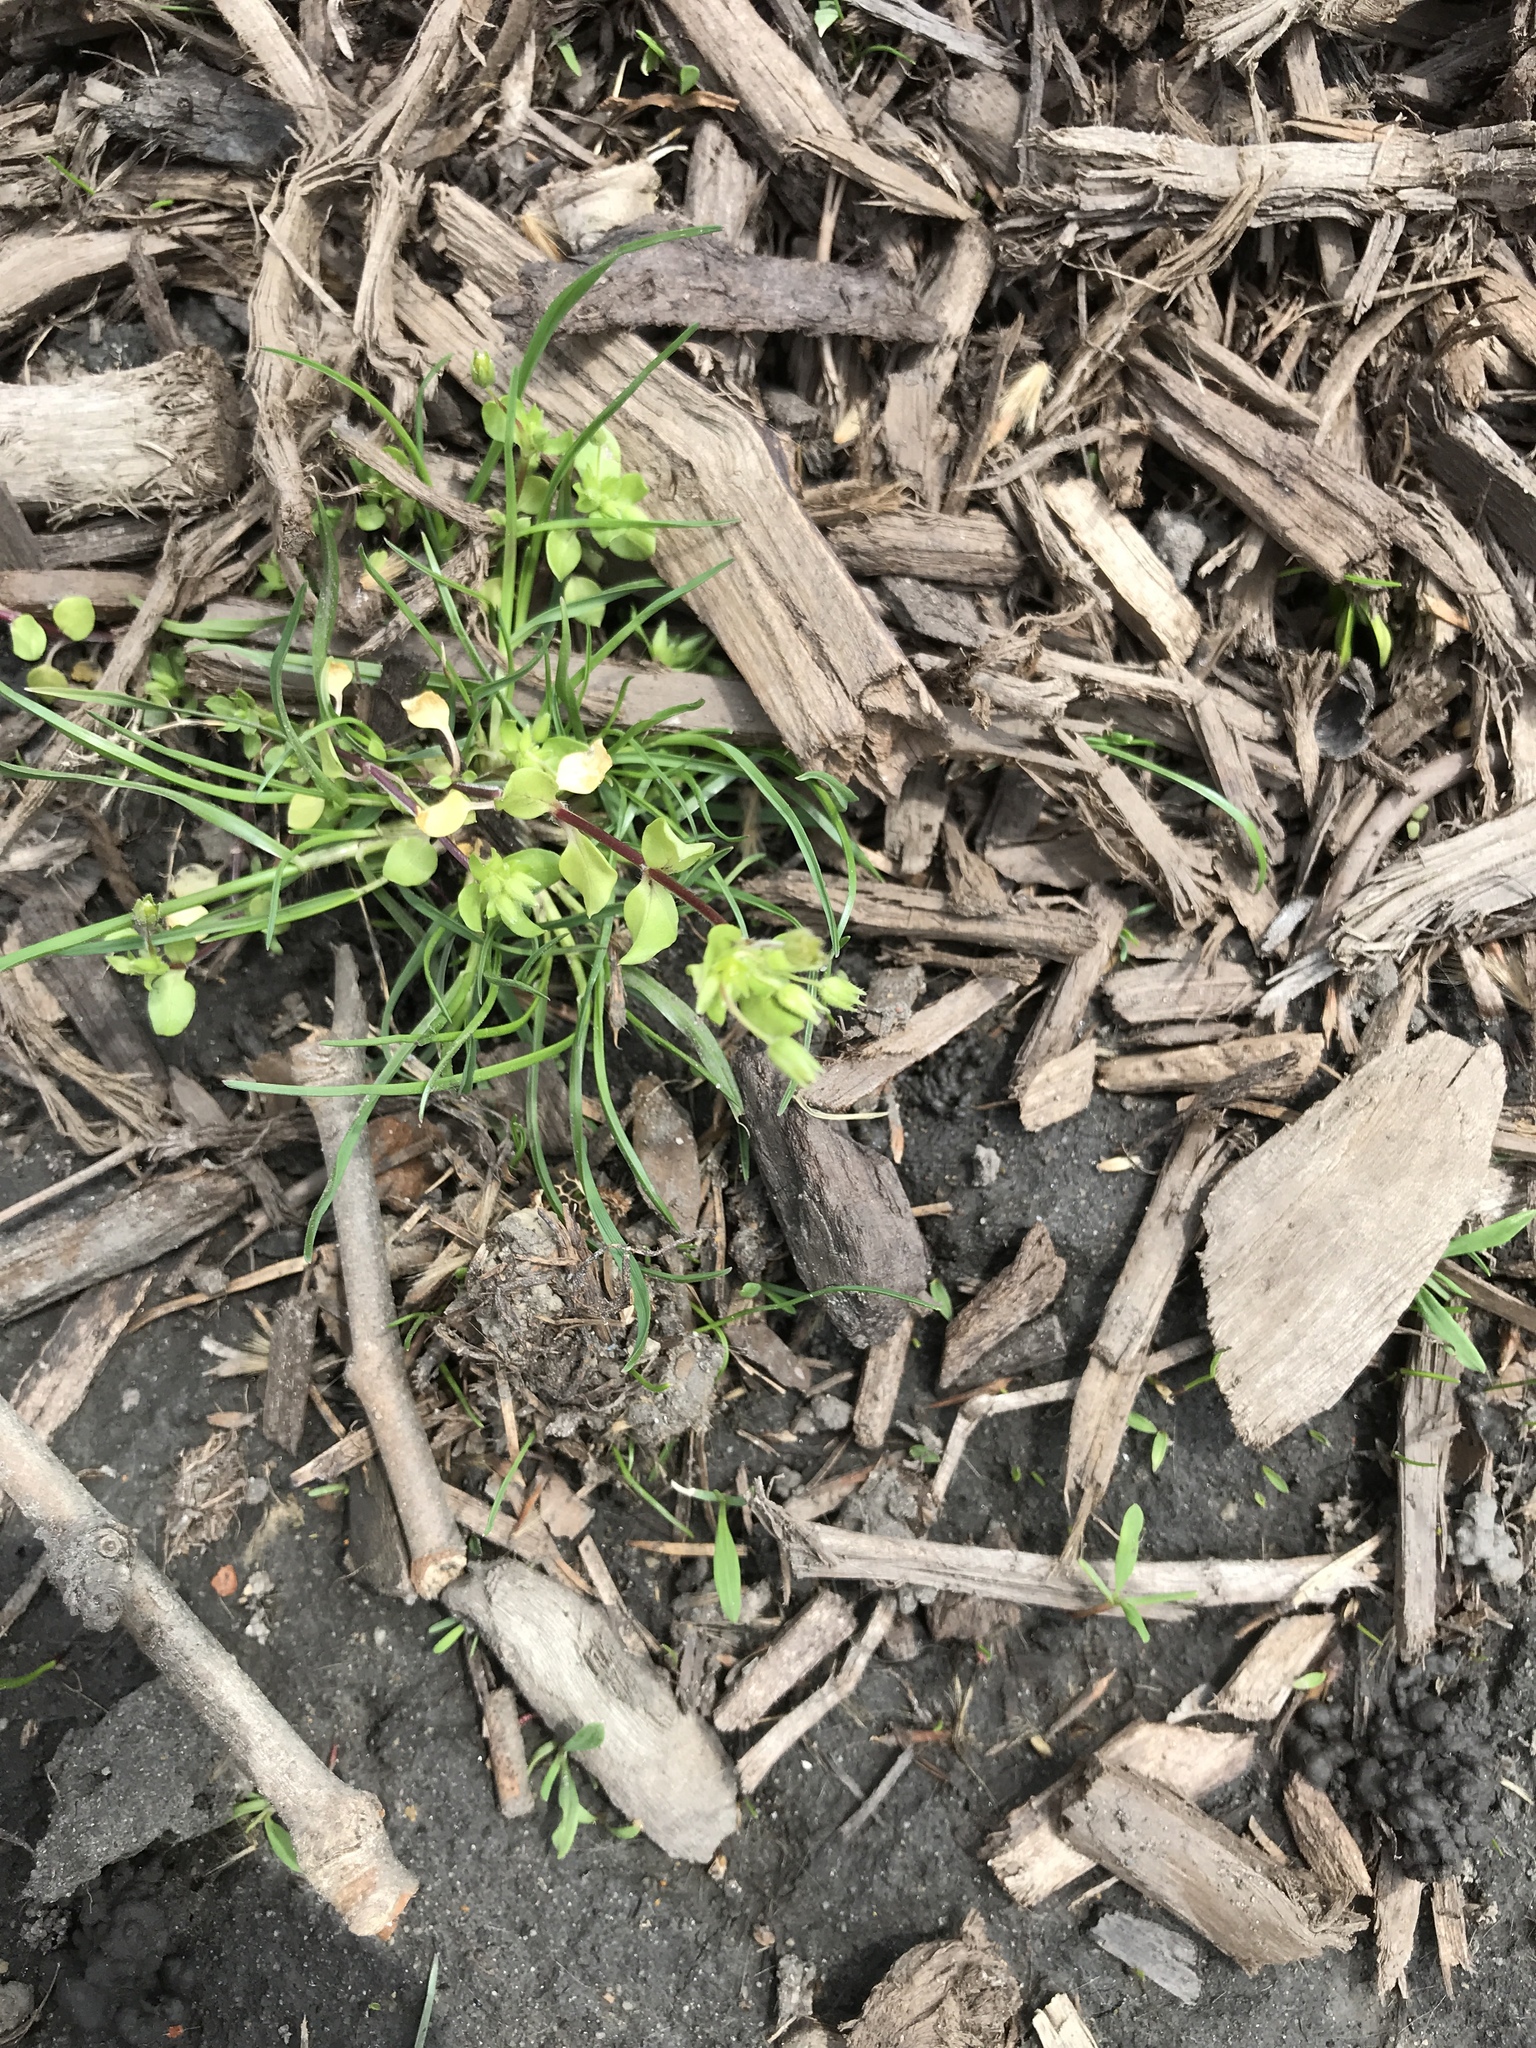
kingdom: Plantae
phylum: Tracheophyta
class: Magnoliopsida
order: Caryophyllales
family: Caryophyllaceae
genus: Stellaria
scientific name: Stellaria media
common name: Common chickweed
